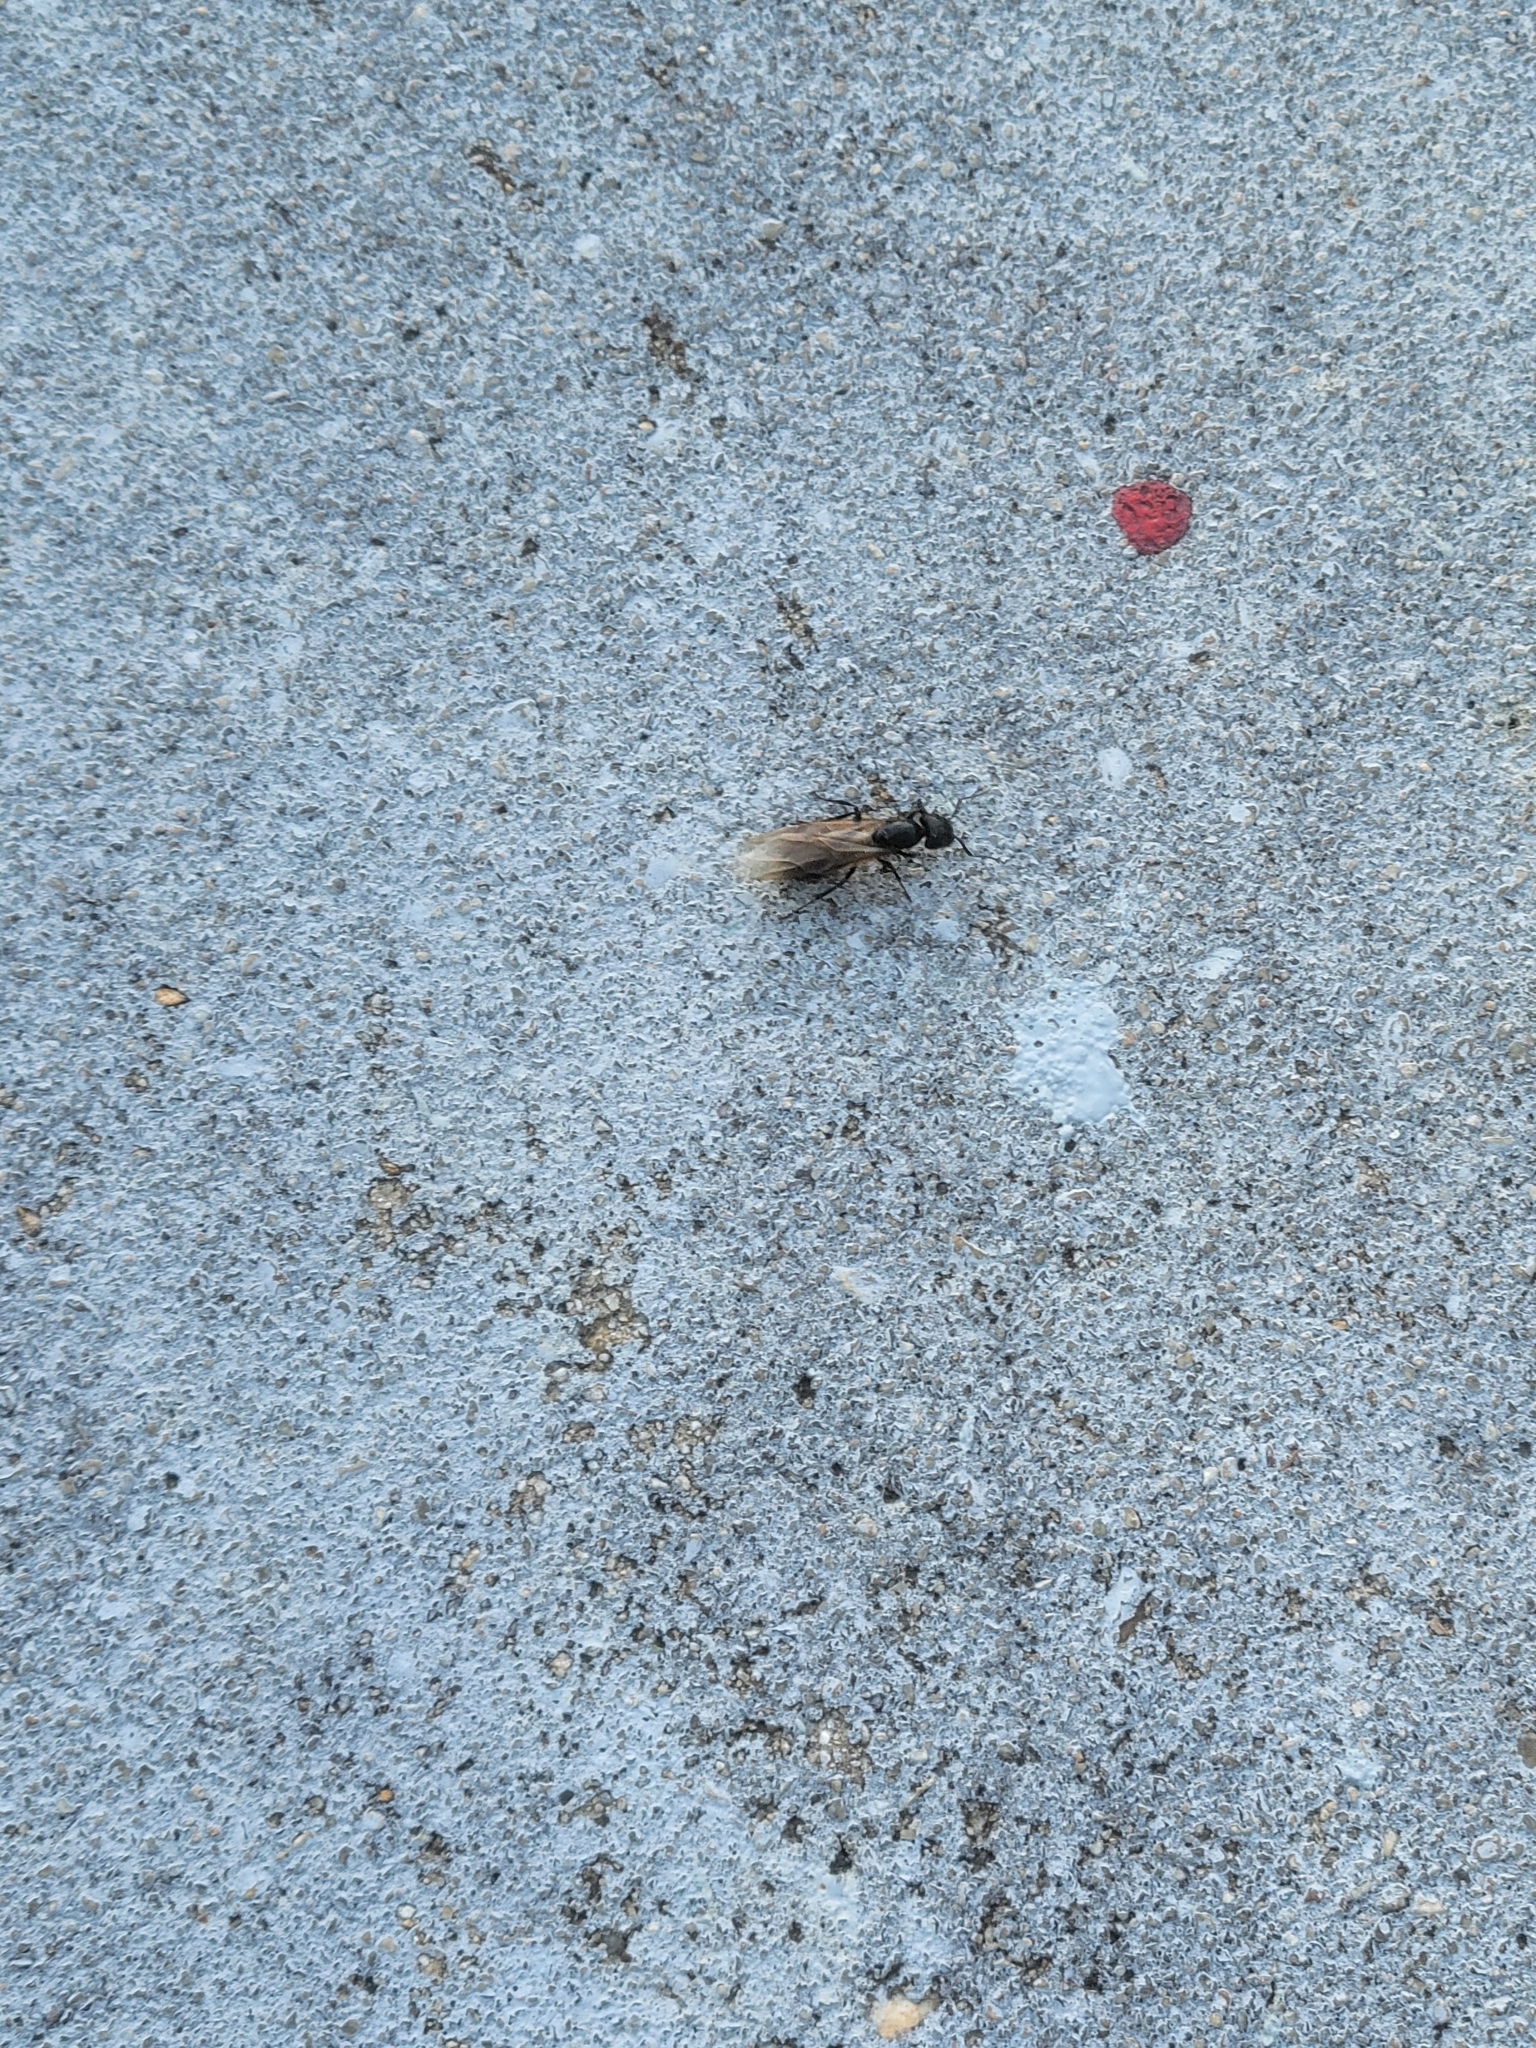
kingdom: Animalia
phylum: Arthropoda
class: Insecta
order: Hymenoptera
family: Formicidae
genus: Camponotus
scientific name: Camponotus pennsylvanicus
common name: Black carpenter ant
